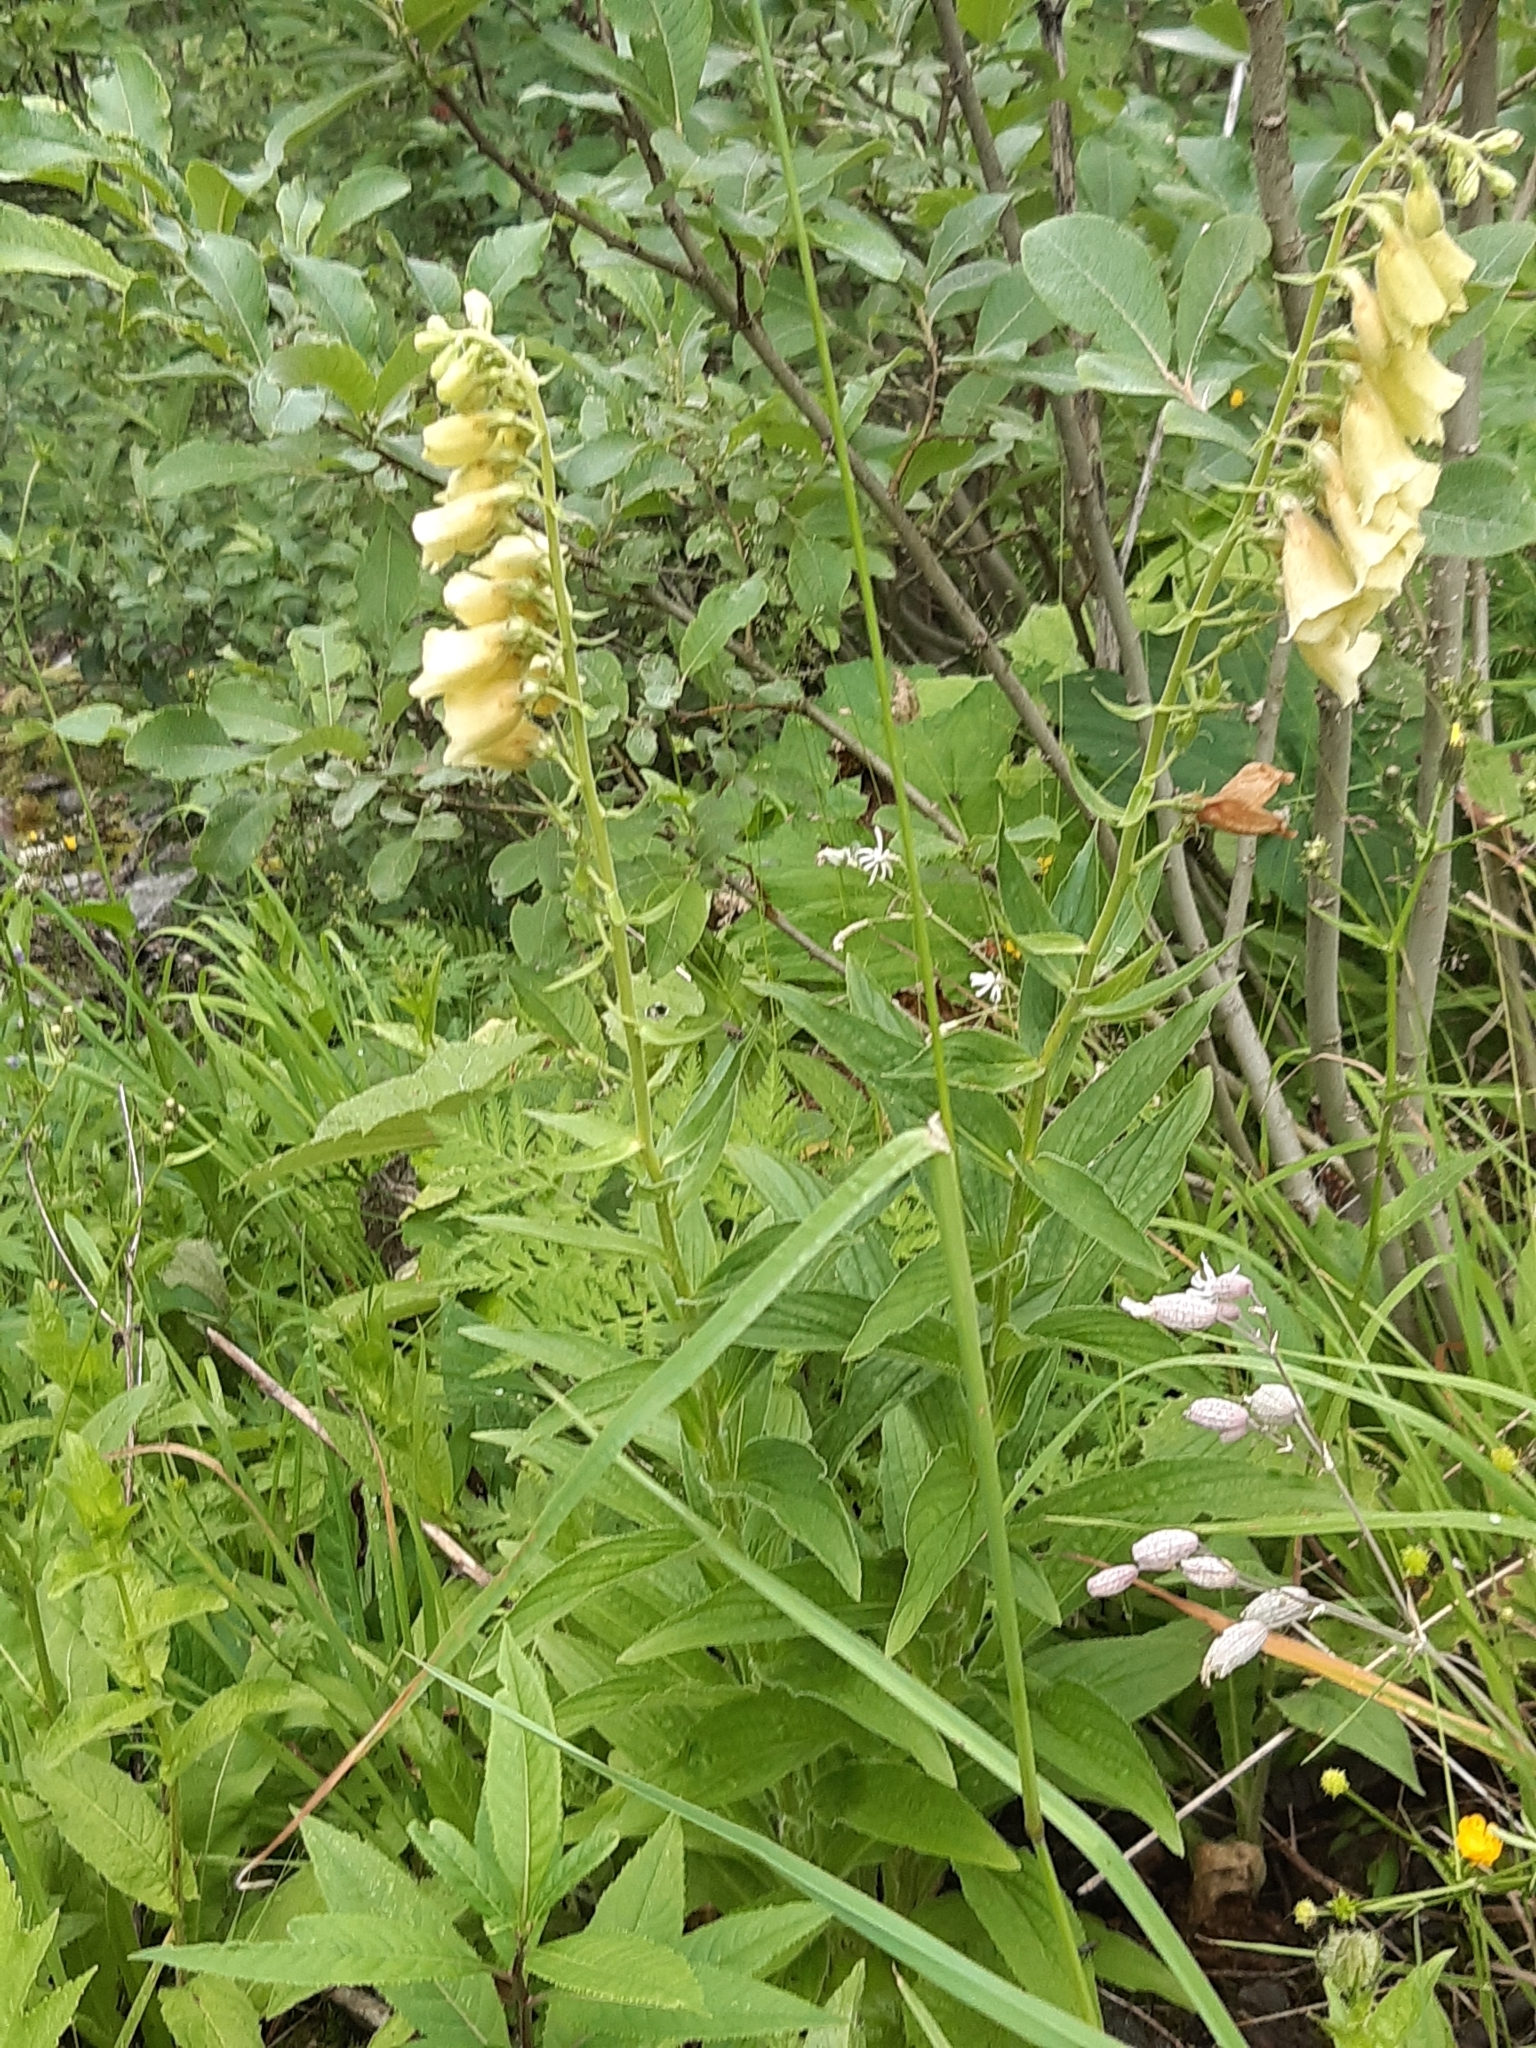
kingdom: Plantae
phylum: Tracheophyta
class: Magnoliopsida
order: Lamiales
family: Plantaginaceae
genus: Digitalis
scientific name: Digitalis grandiflora
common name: Yellow foxglove
